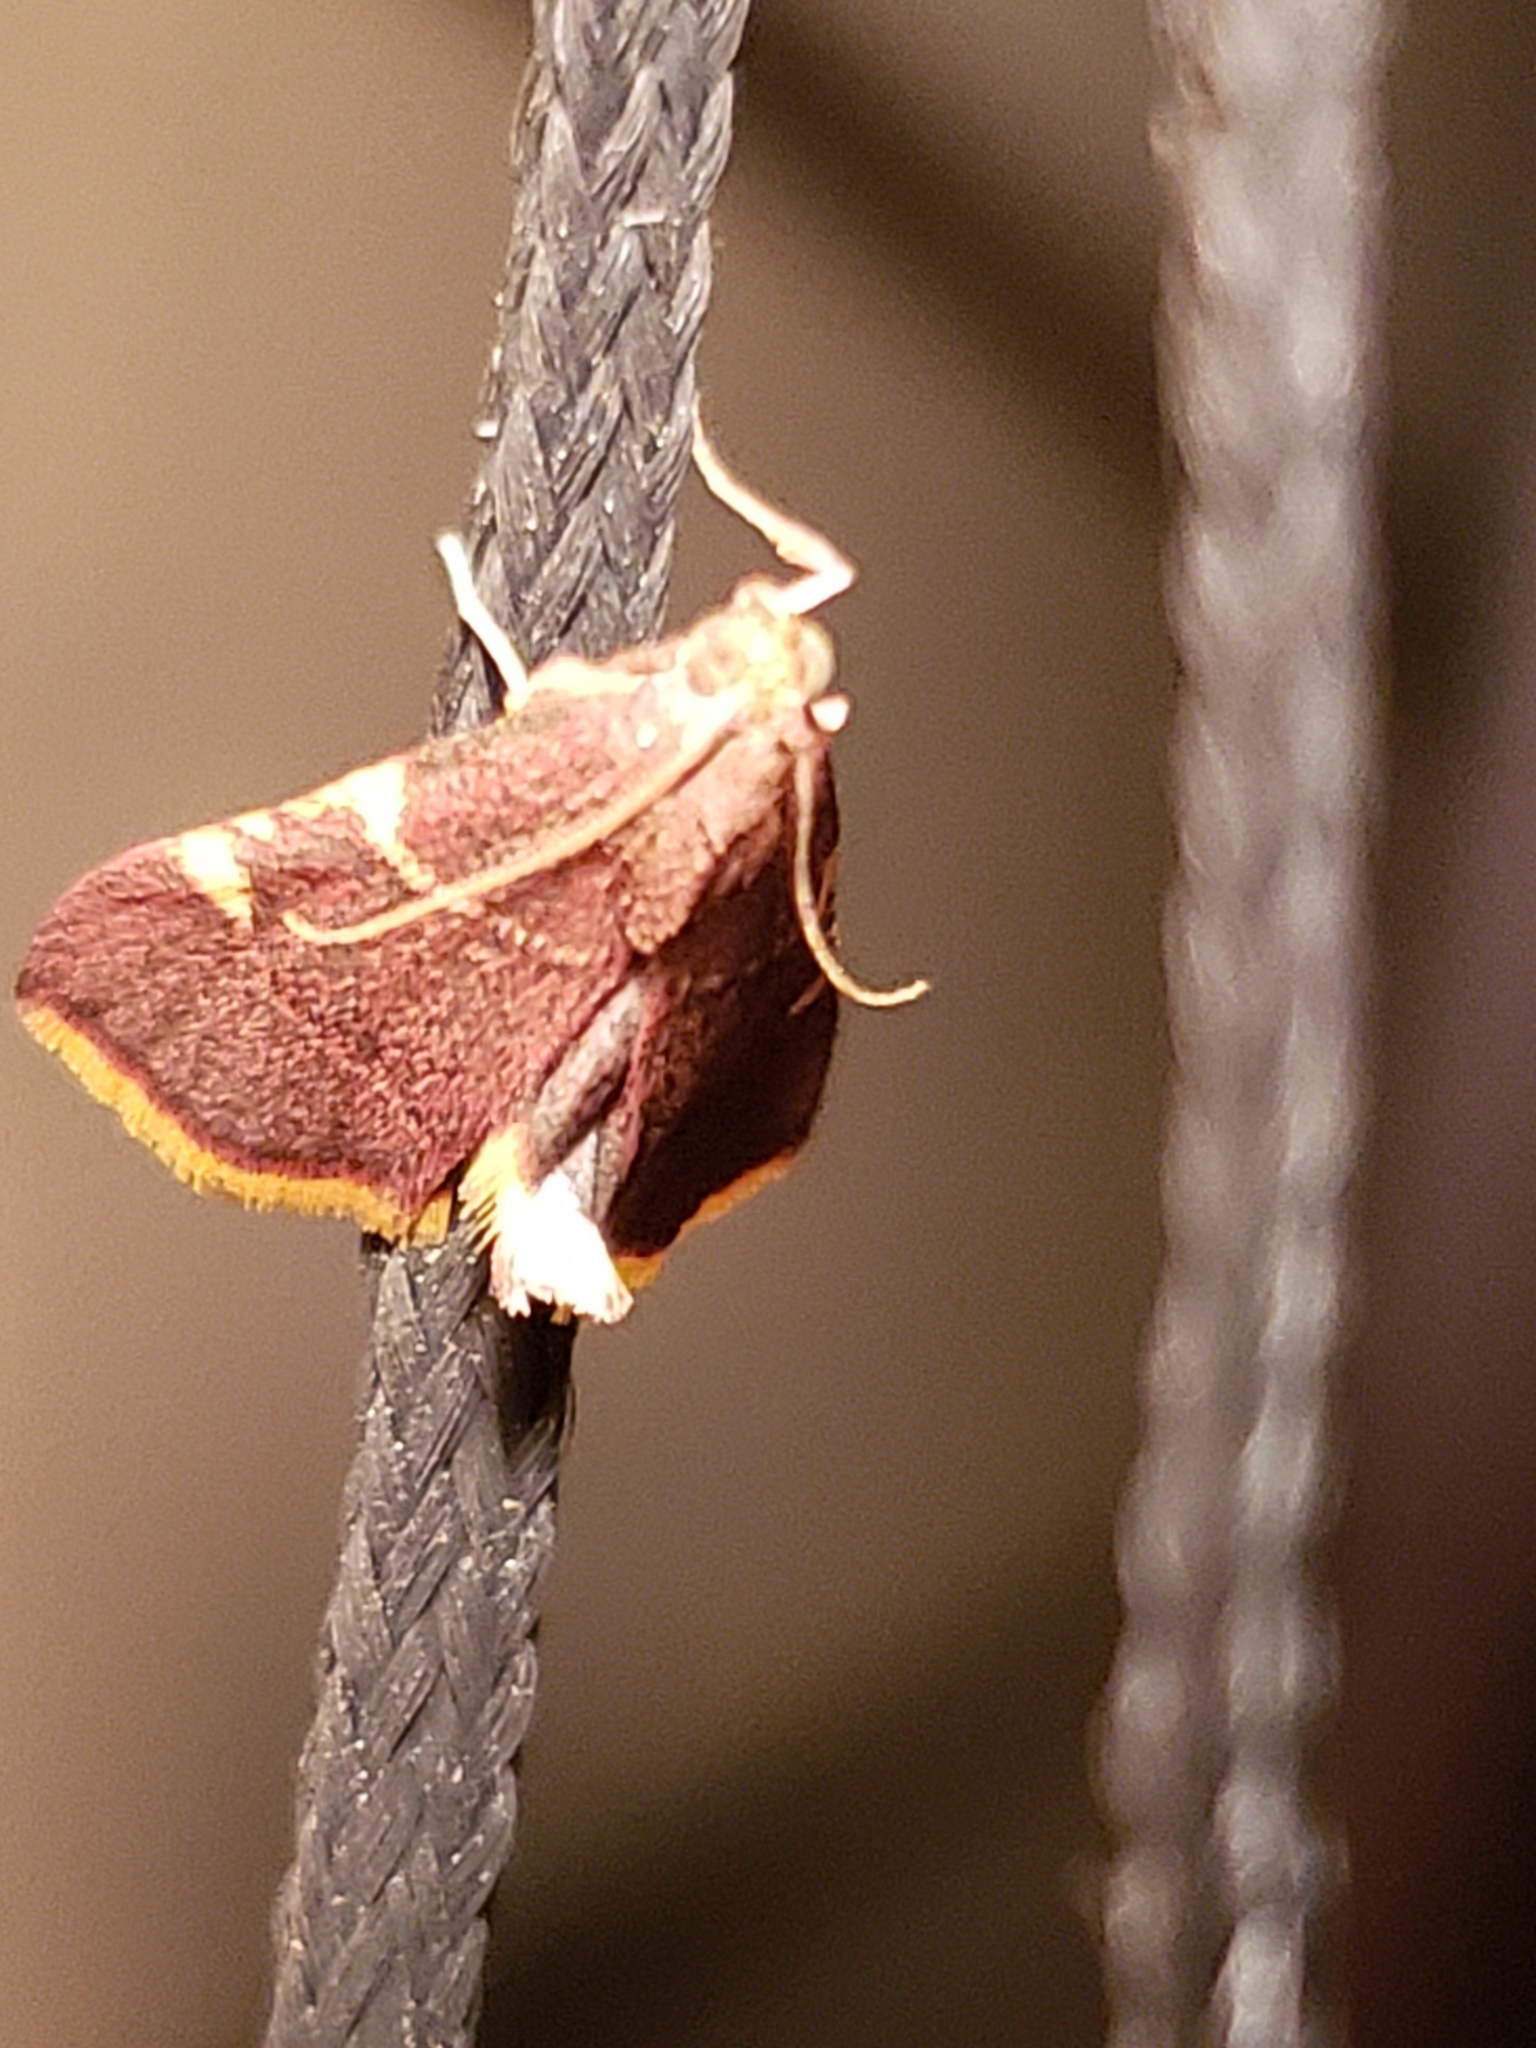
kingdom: Animalia
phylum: Arthropoda
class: Insecta
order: Lepidoptera
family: Pyralidae
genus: Hypsopygia
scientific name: Hypsopygia olinalis
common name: Yellow-fringed dolichomia moth
